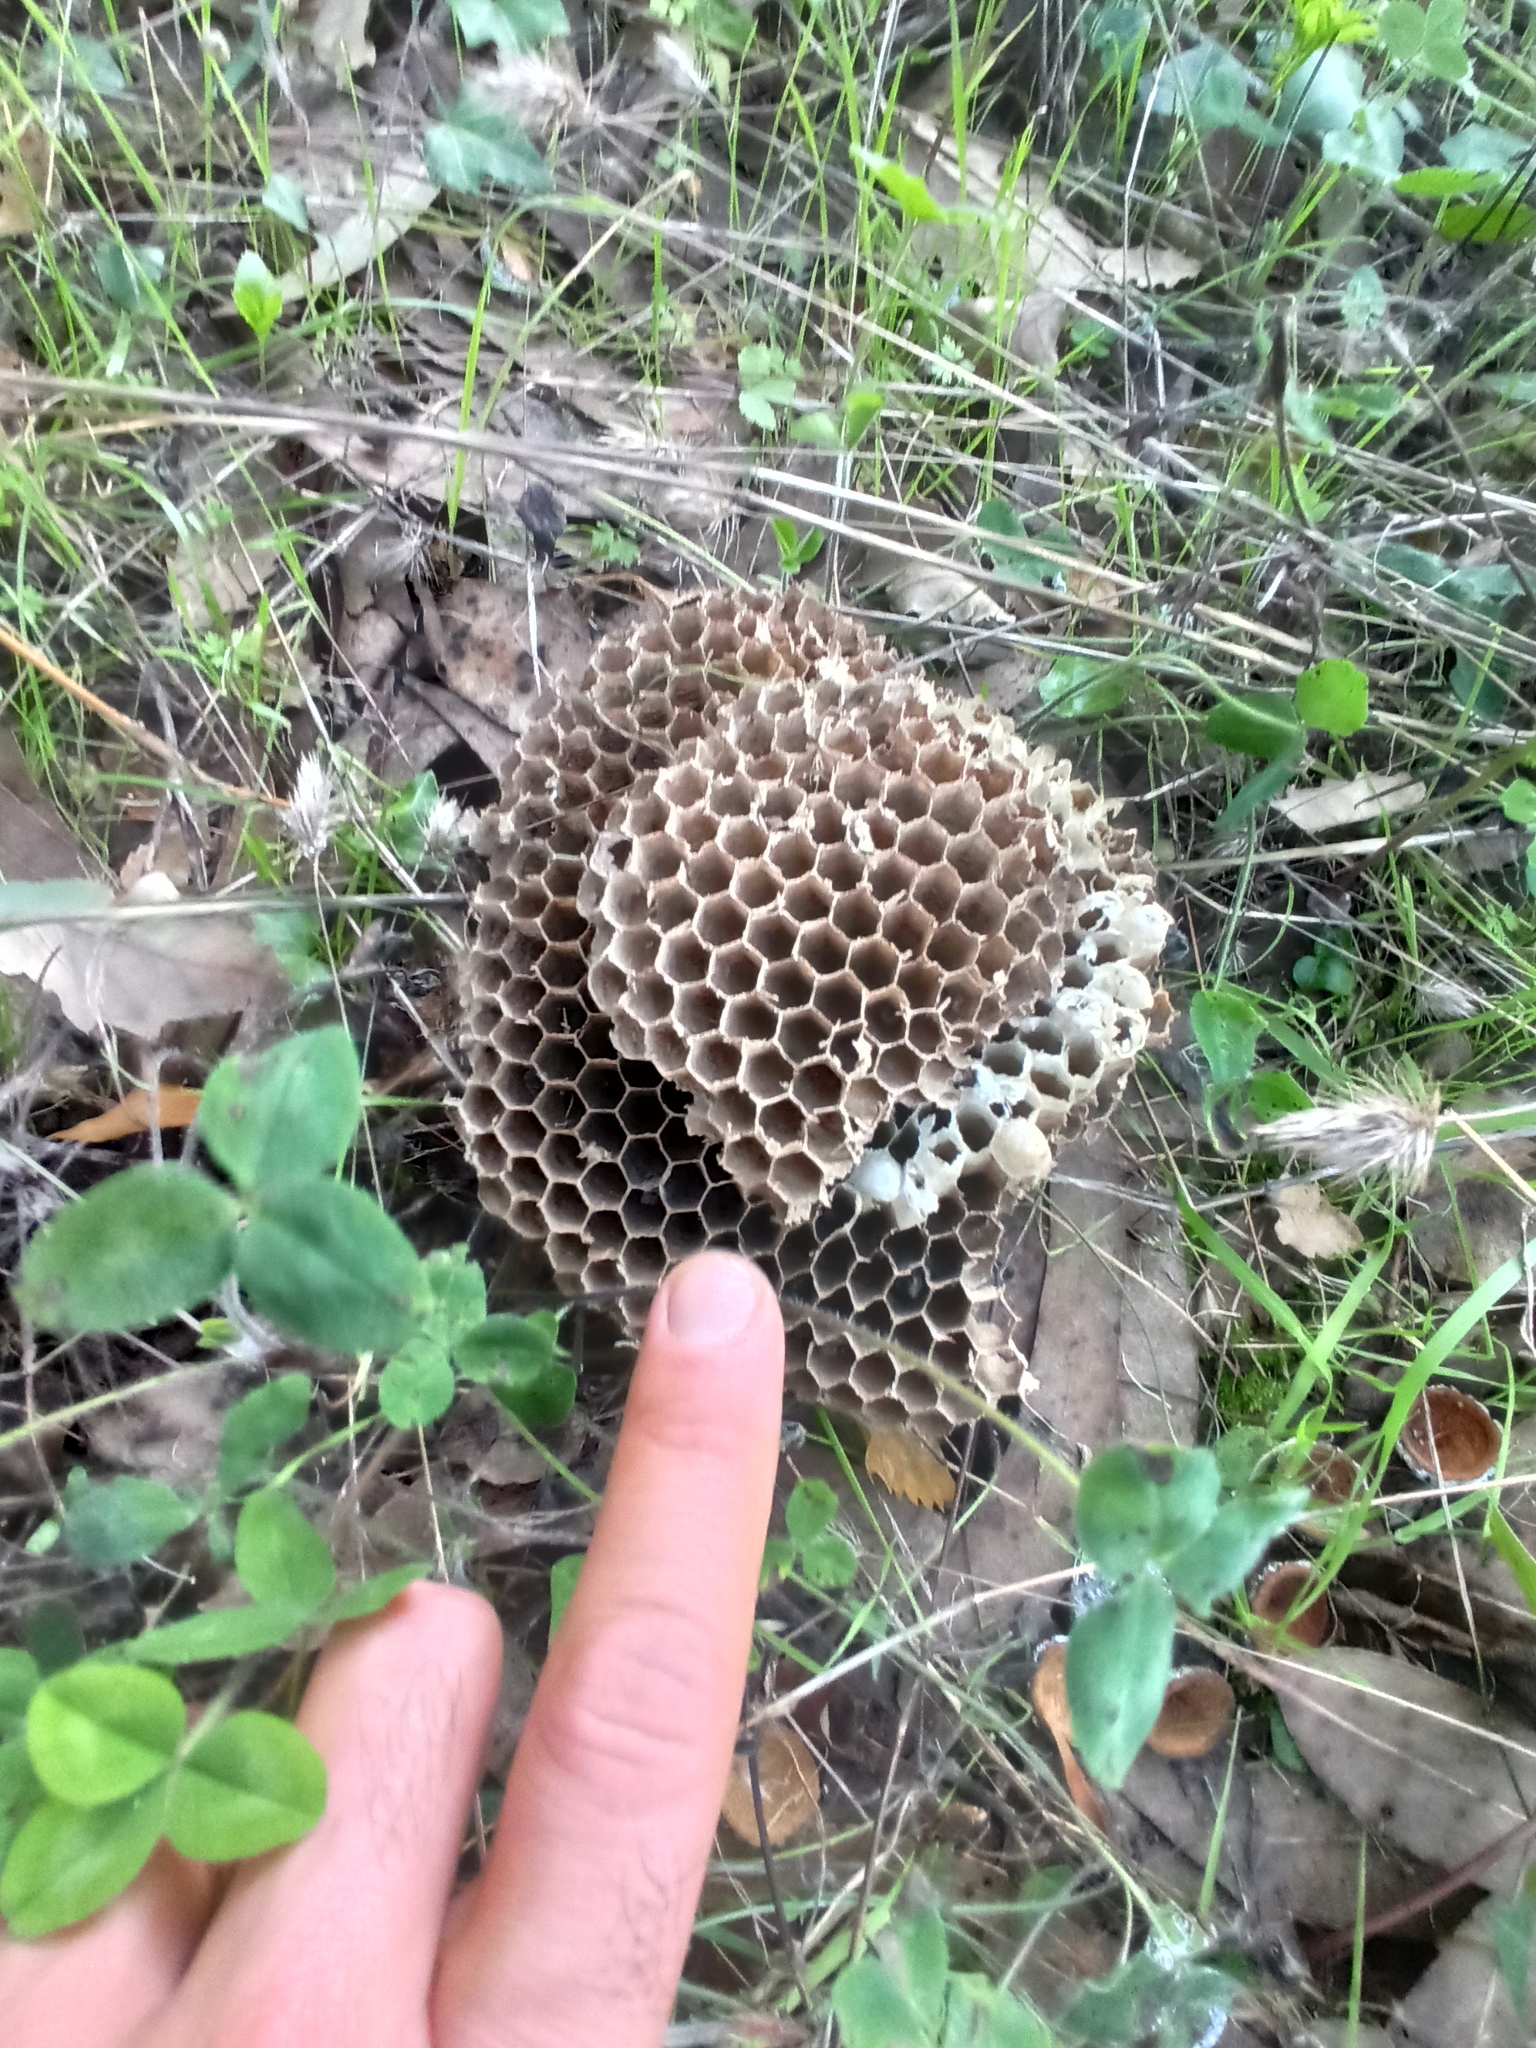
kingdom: Animalia
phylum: Arthropoda
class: Insecta
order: Hymenoptera
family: Vespidae
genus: Vespa
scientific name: Vespa velutina
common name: Asian hornet
